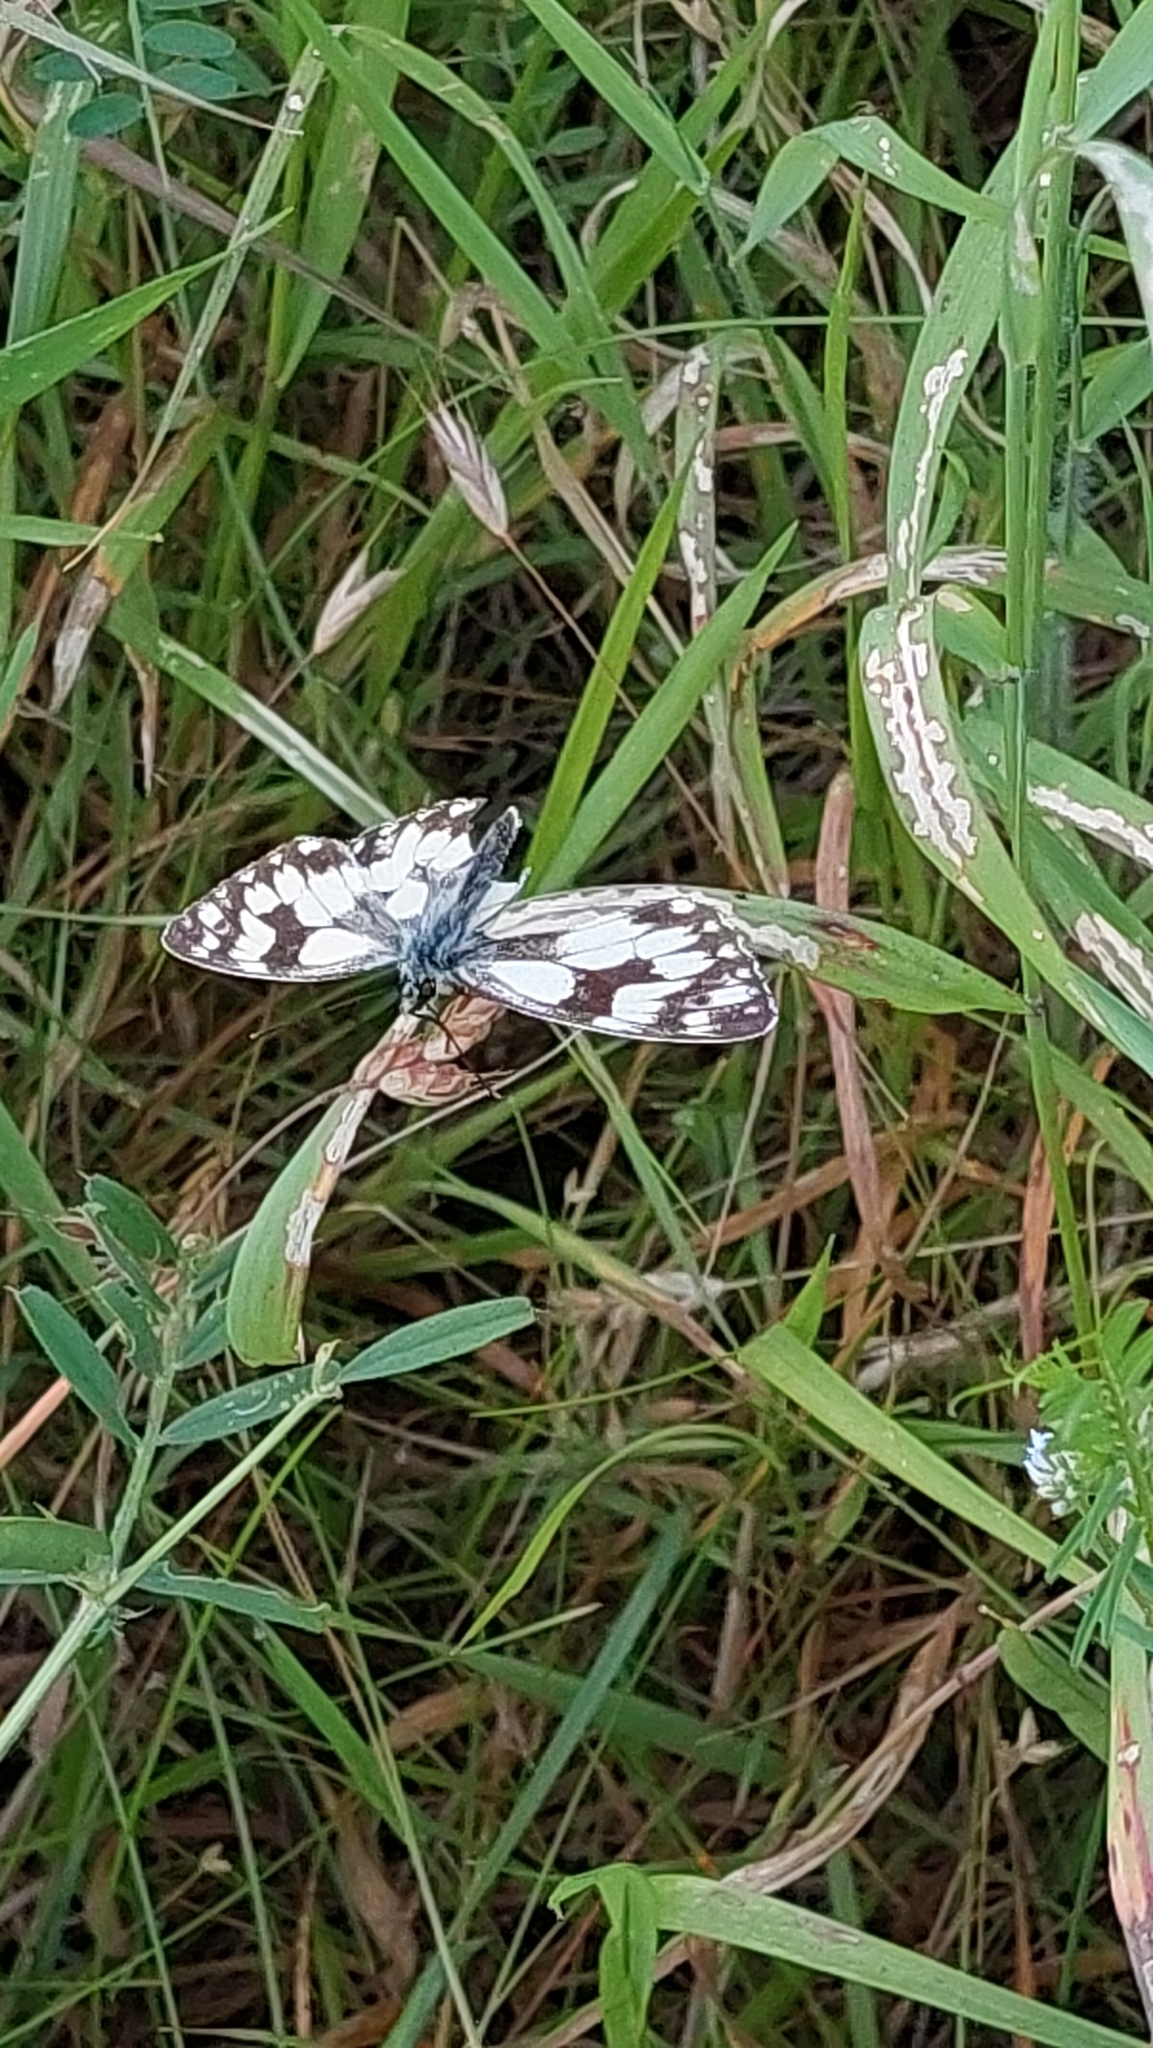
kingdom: Animalia
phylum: Arthropoda
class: Insecta
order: Lepidoptera
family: Nymphalidae
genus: Melanargia
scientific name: Melanargia galathea
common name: Marbled white
